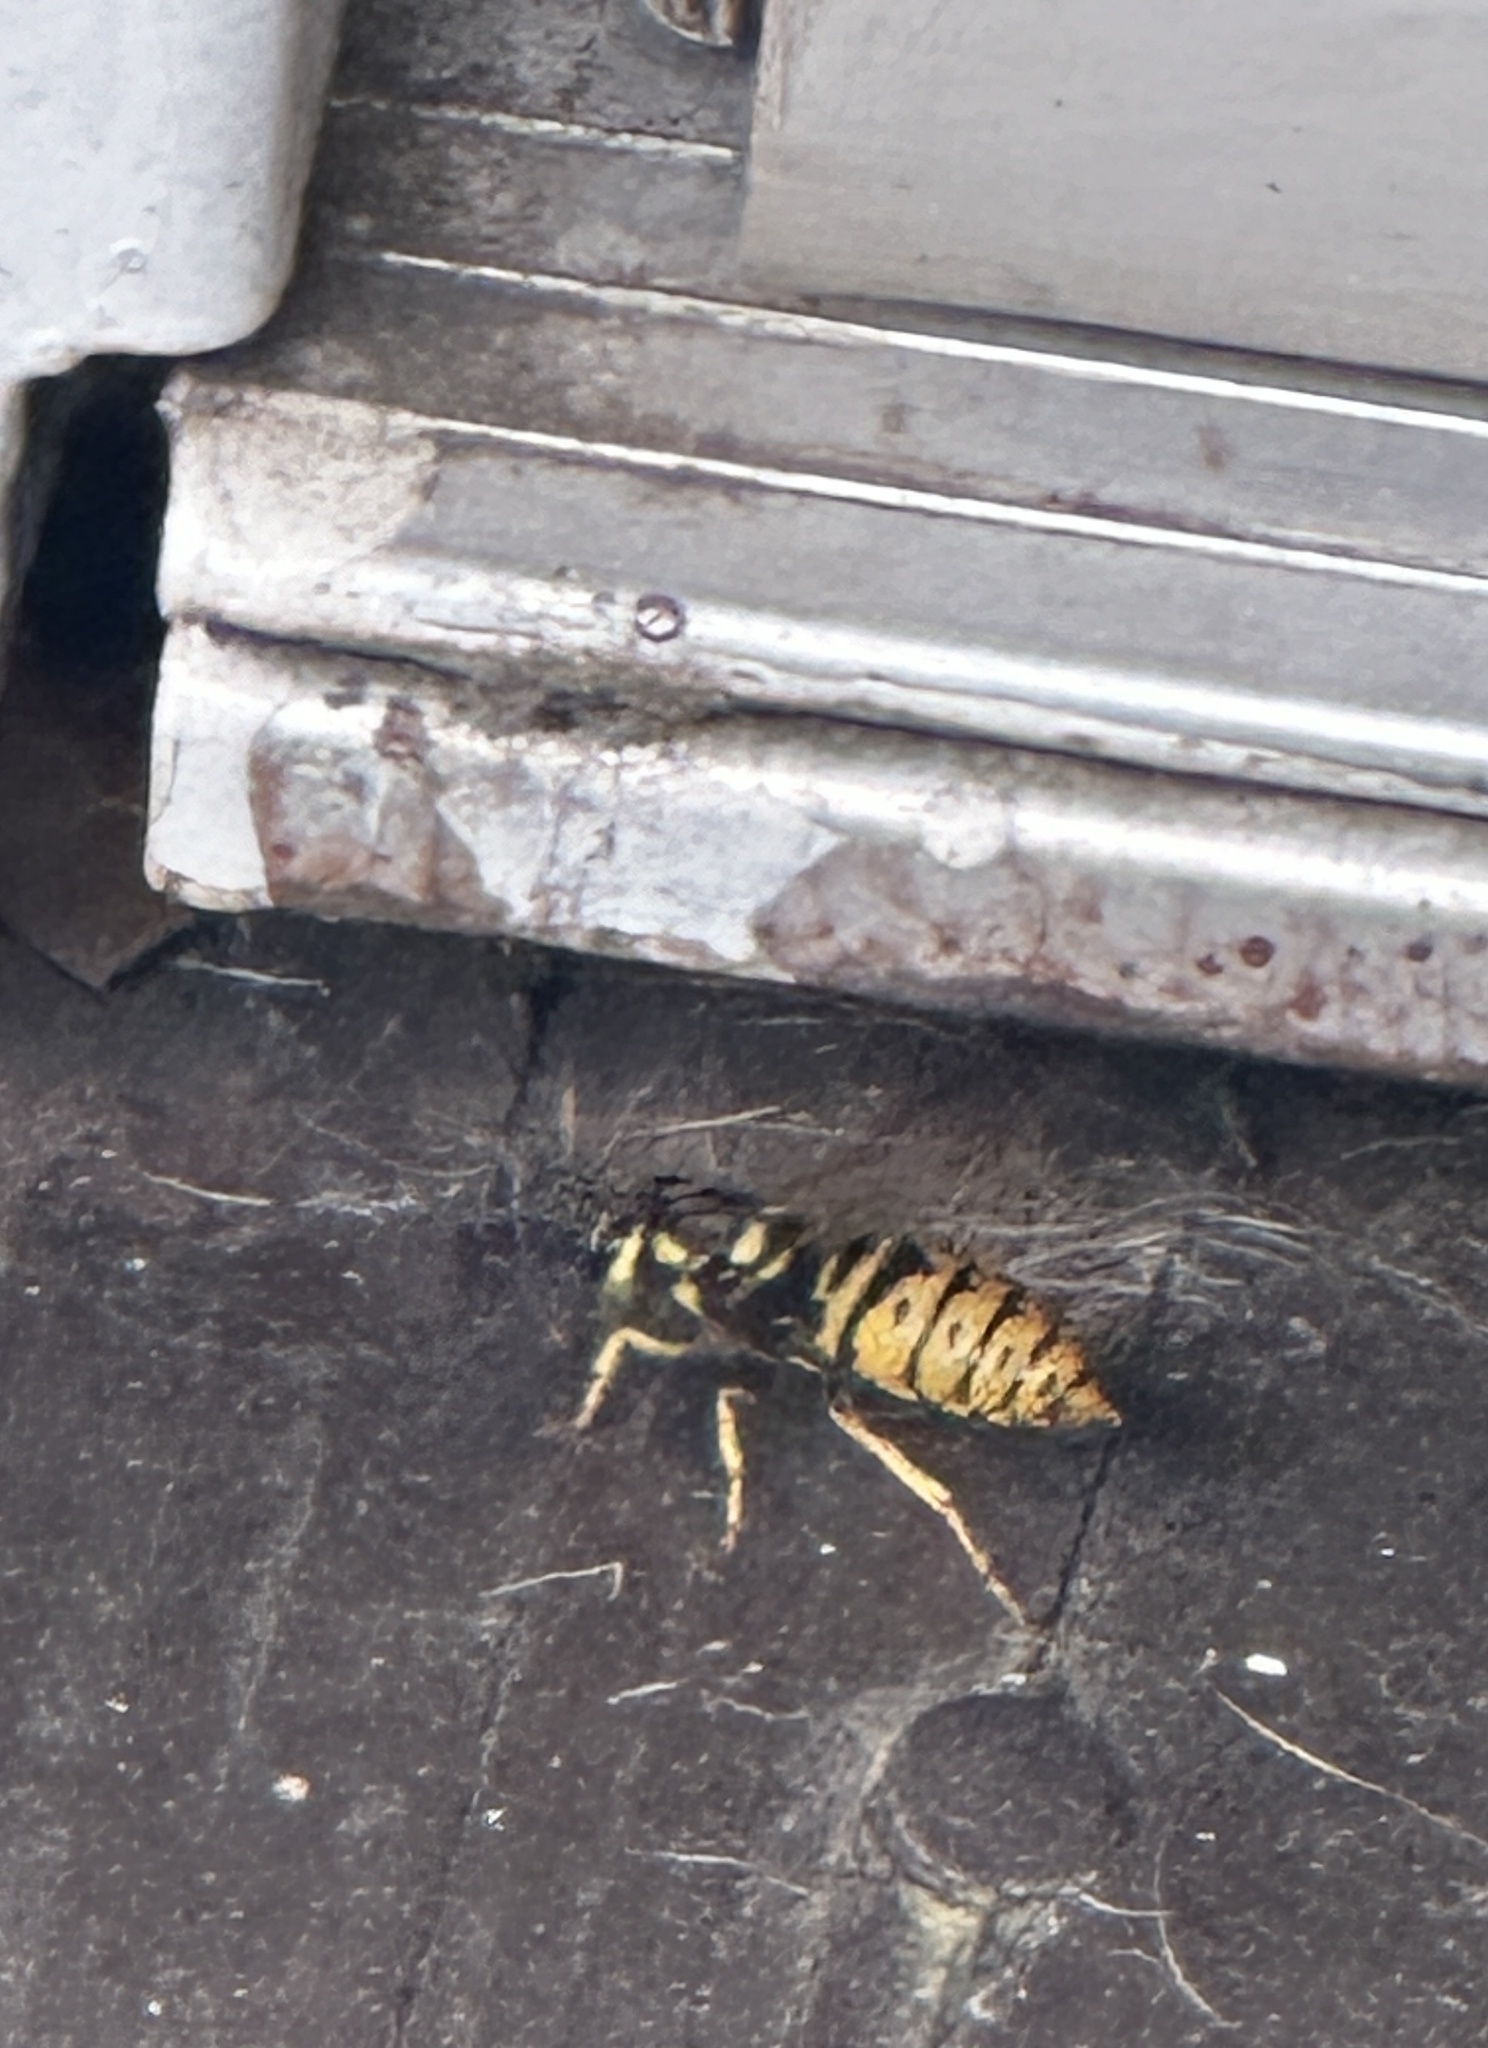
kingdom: Animalia
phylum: Arthropoda
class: Insecta
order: Hymenoptera
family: Vespidae
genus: Vespula
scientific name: Vespula maculifrons
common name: Eastern yellowjacket
